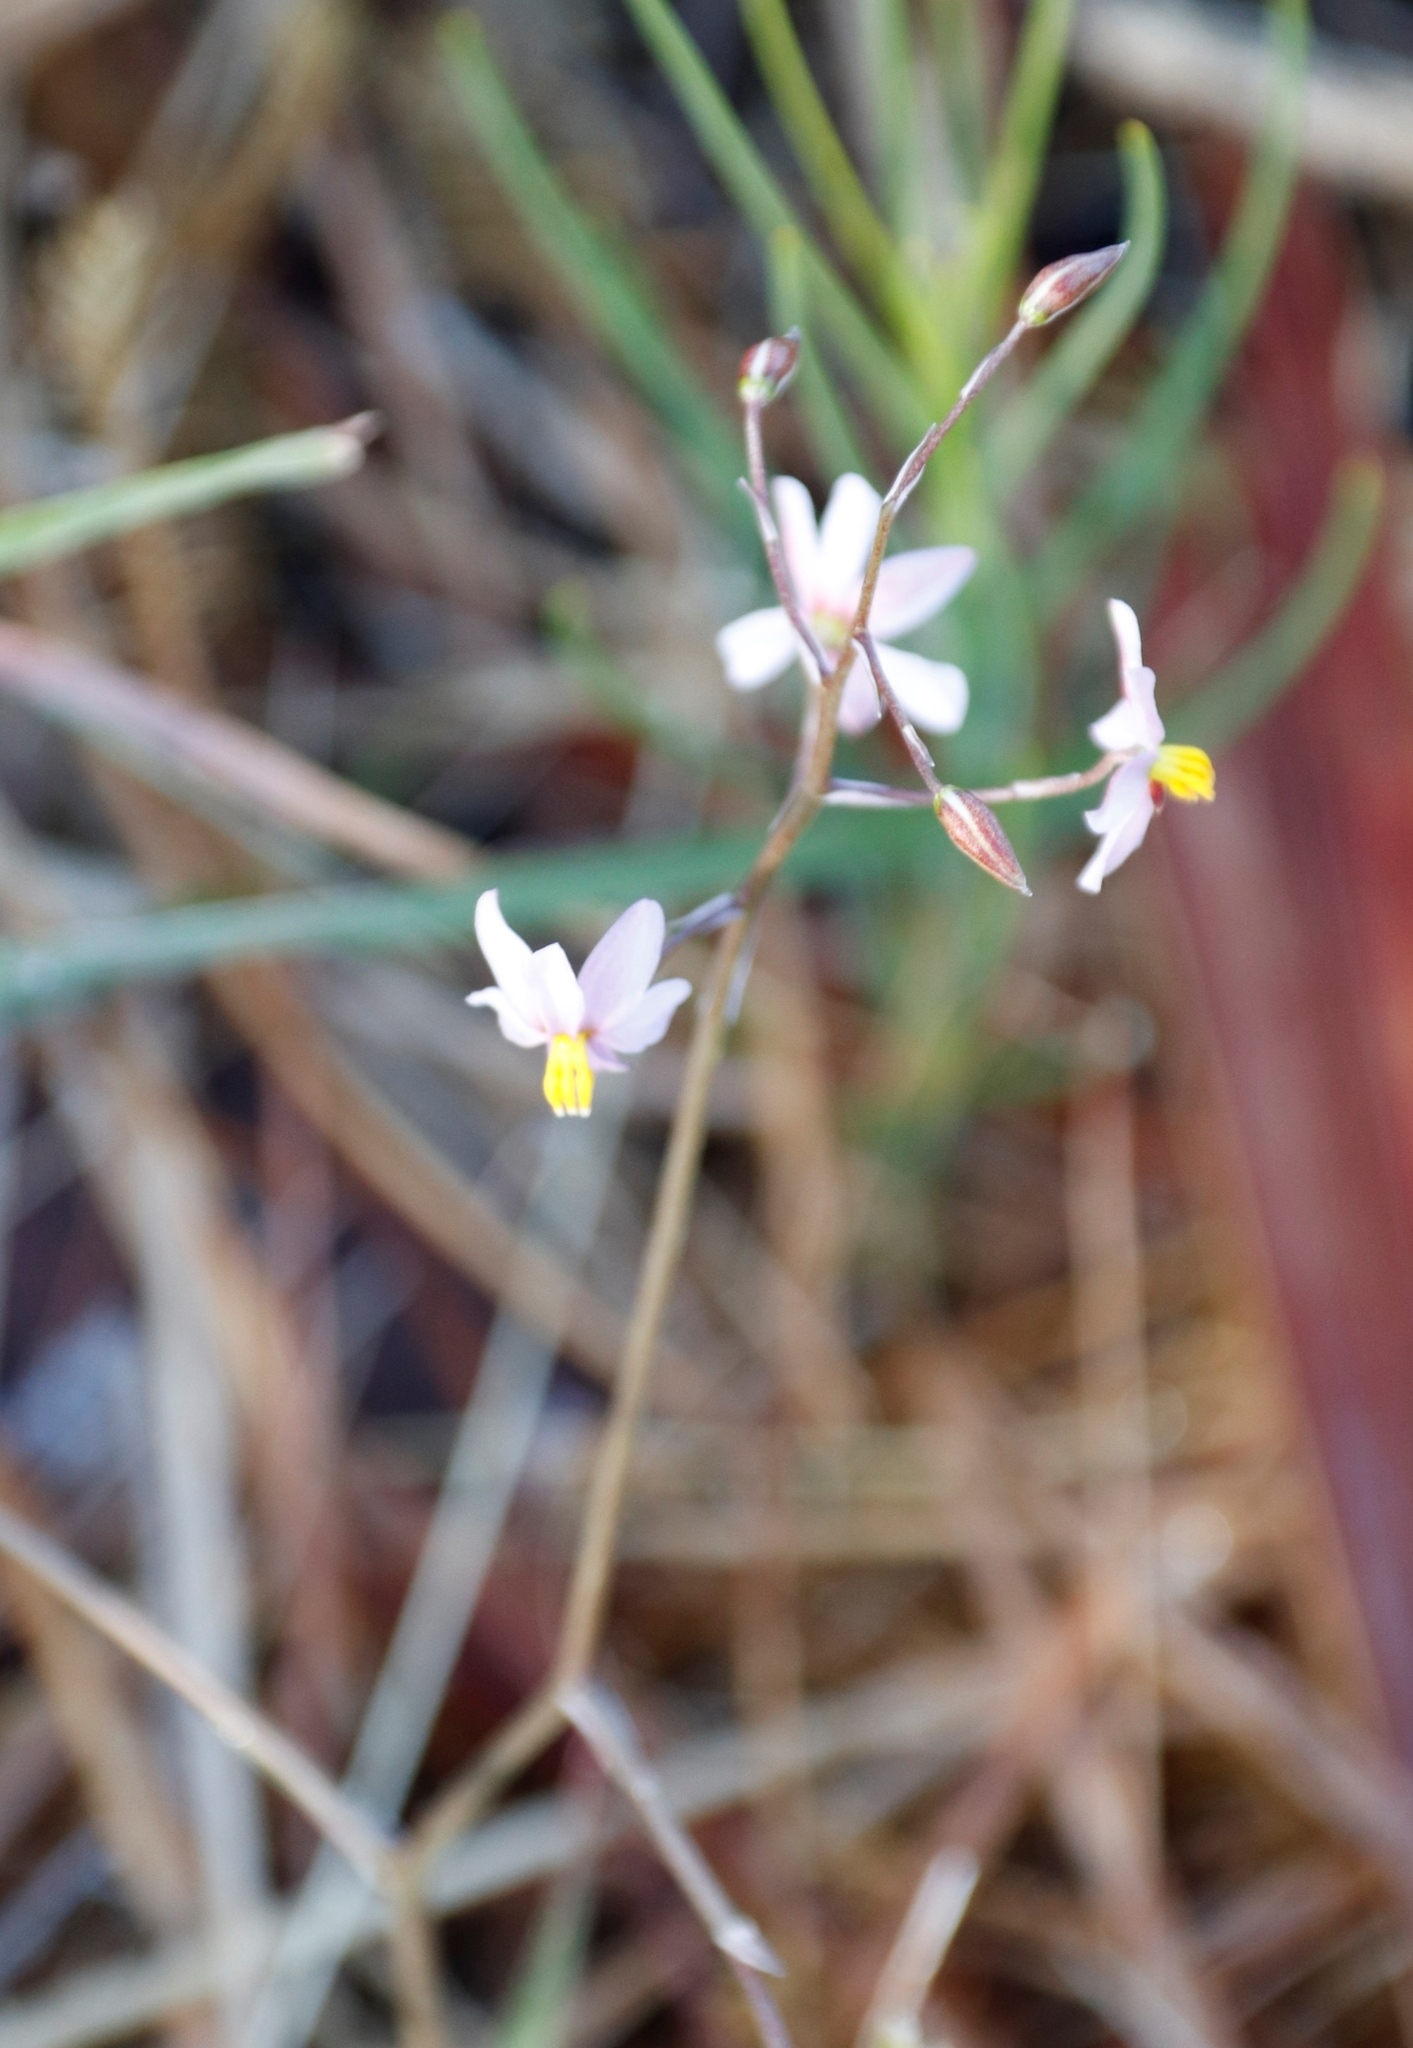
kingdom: Plantae
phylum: Tracheophyta
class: Liliopsida
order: Asparagales
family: Tecophilaeaceae
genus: Cyanella
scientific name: Cyanella hyacinthoides
